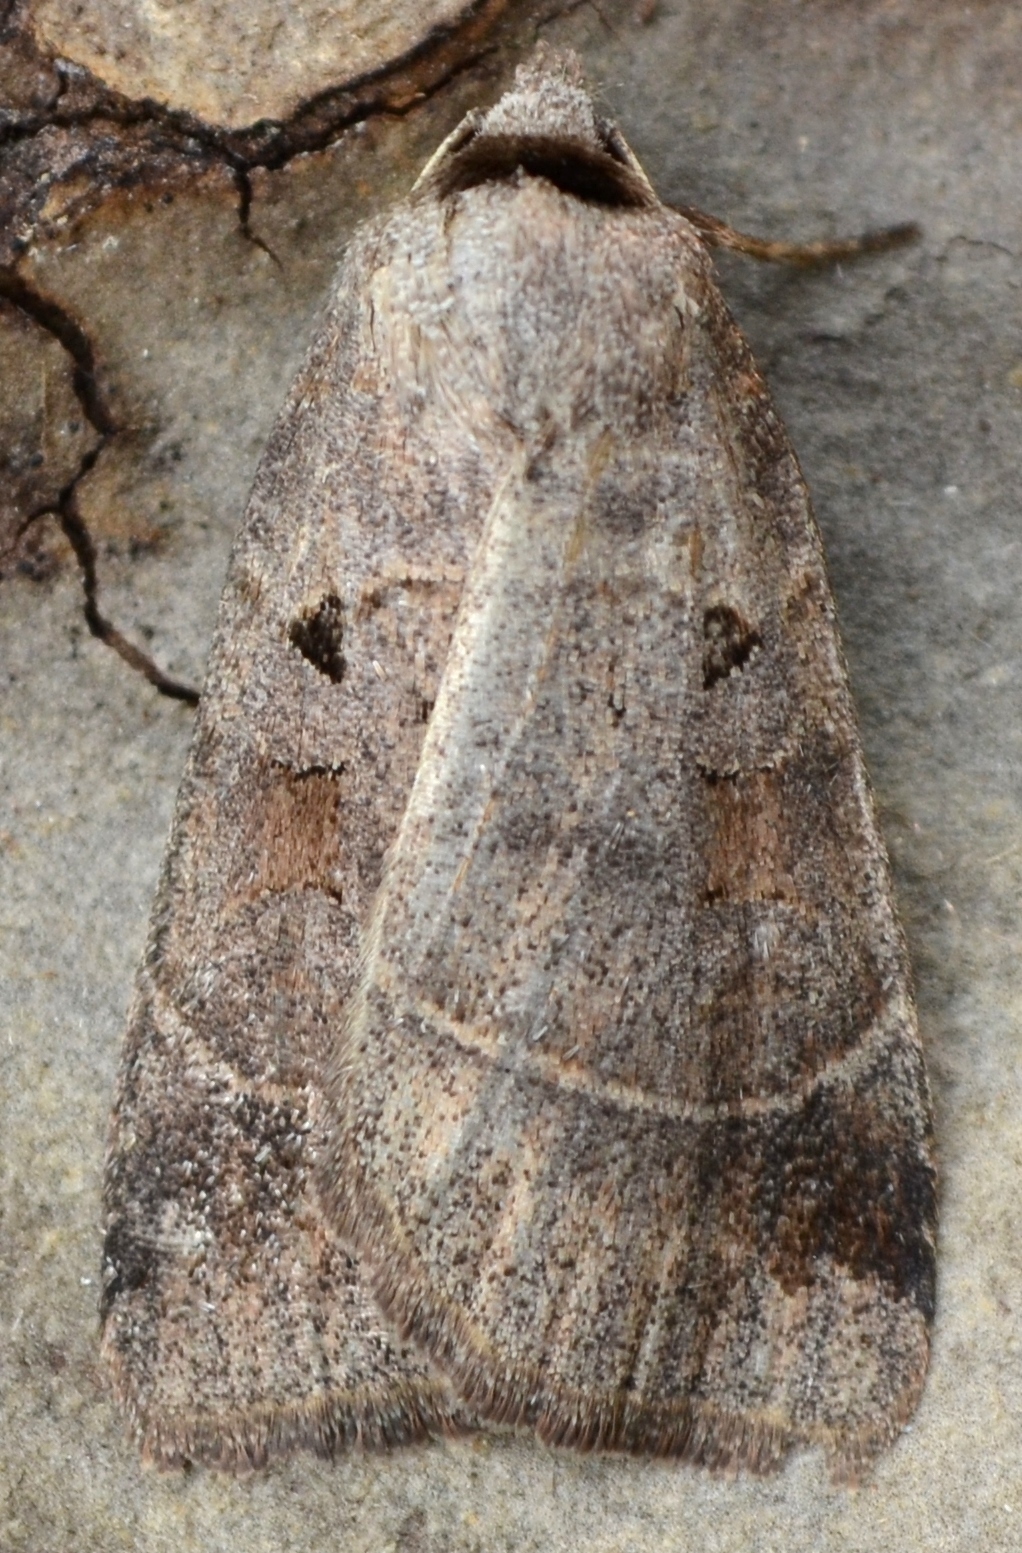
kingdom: Animalia
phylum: Arthropoda
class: Insecta
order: Lepidoptera
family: Noctuidae
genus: Agnorisma
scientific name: Agnorisma badinodis
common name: Pale-banded dart
